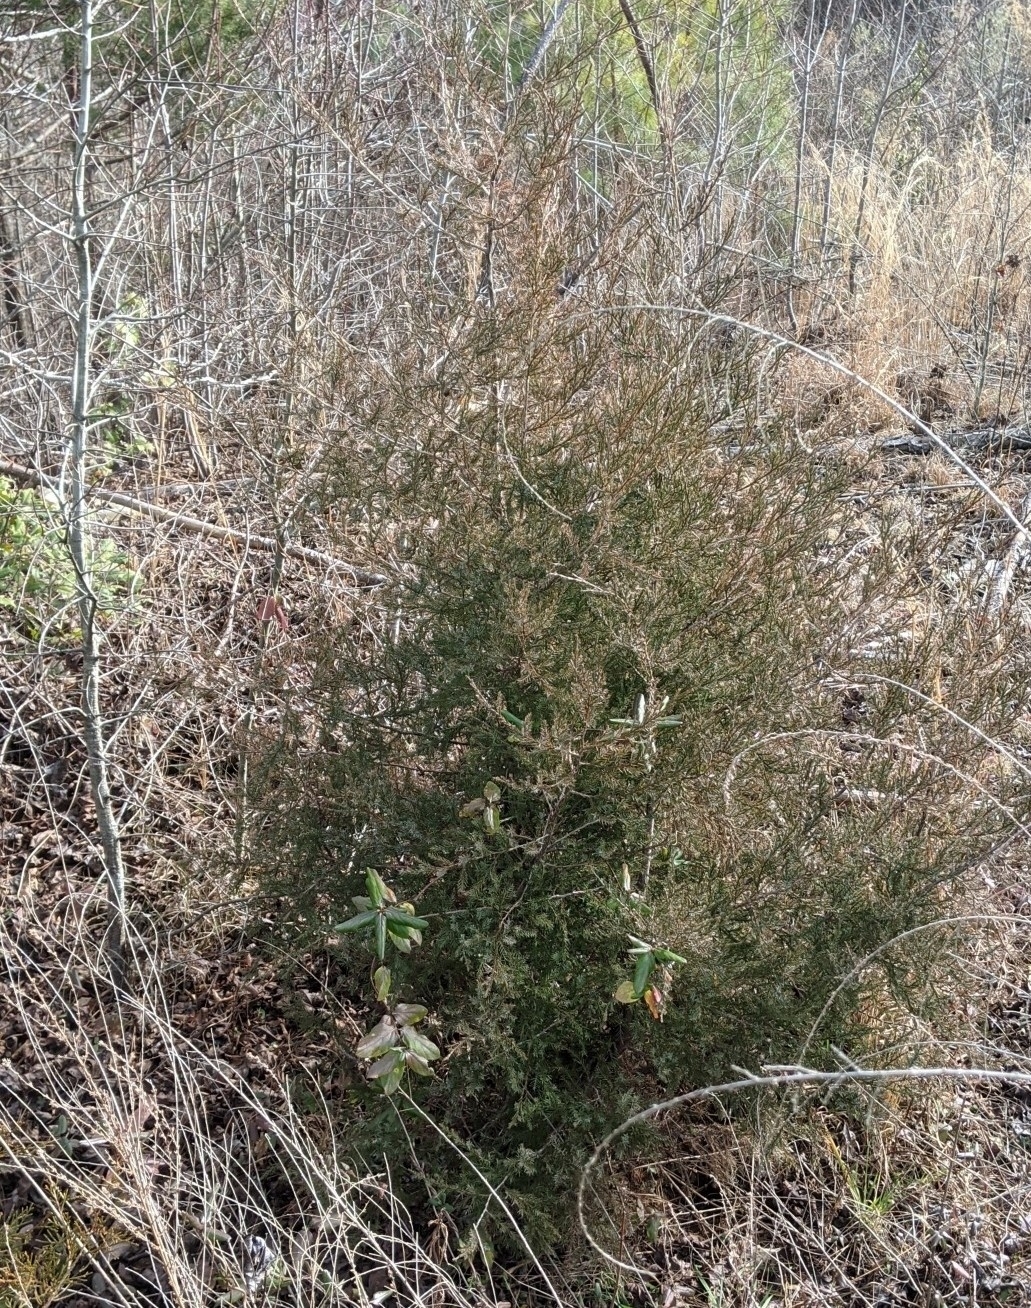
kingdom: Plantae
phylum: Tracheophyta
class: Pinopsida
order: Pinales
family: Cupressaceae
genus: Juniperus
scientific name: Juniperus virginiana
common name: Red juniper
